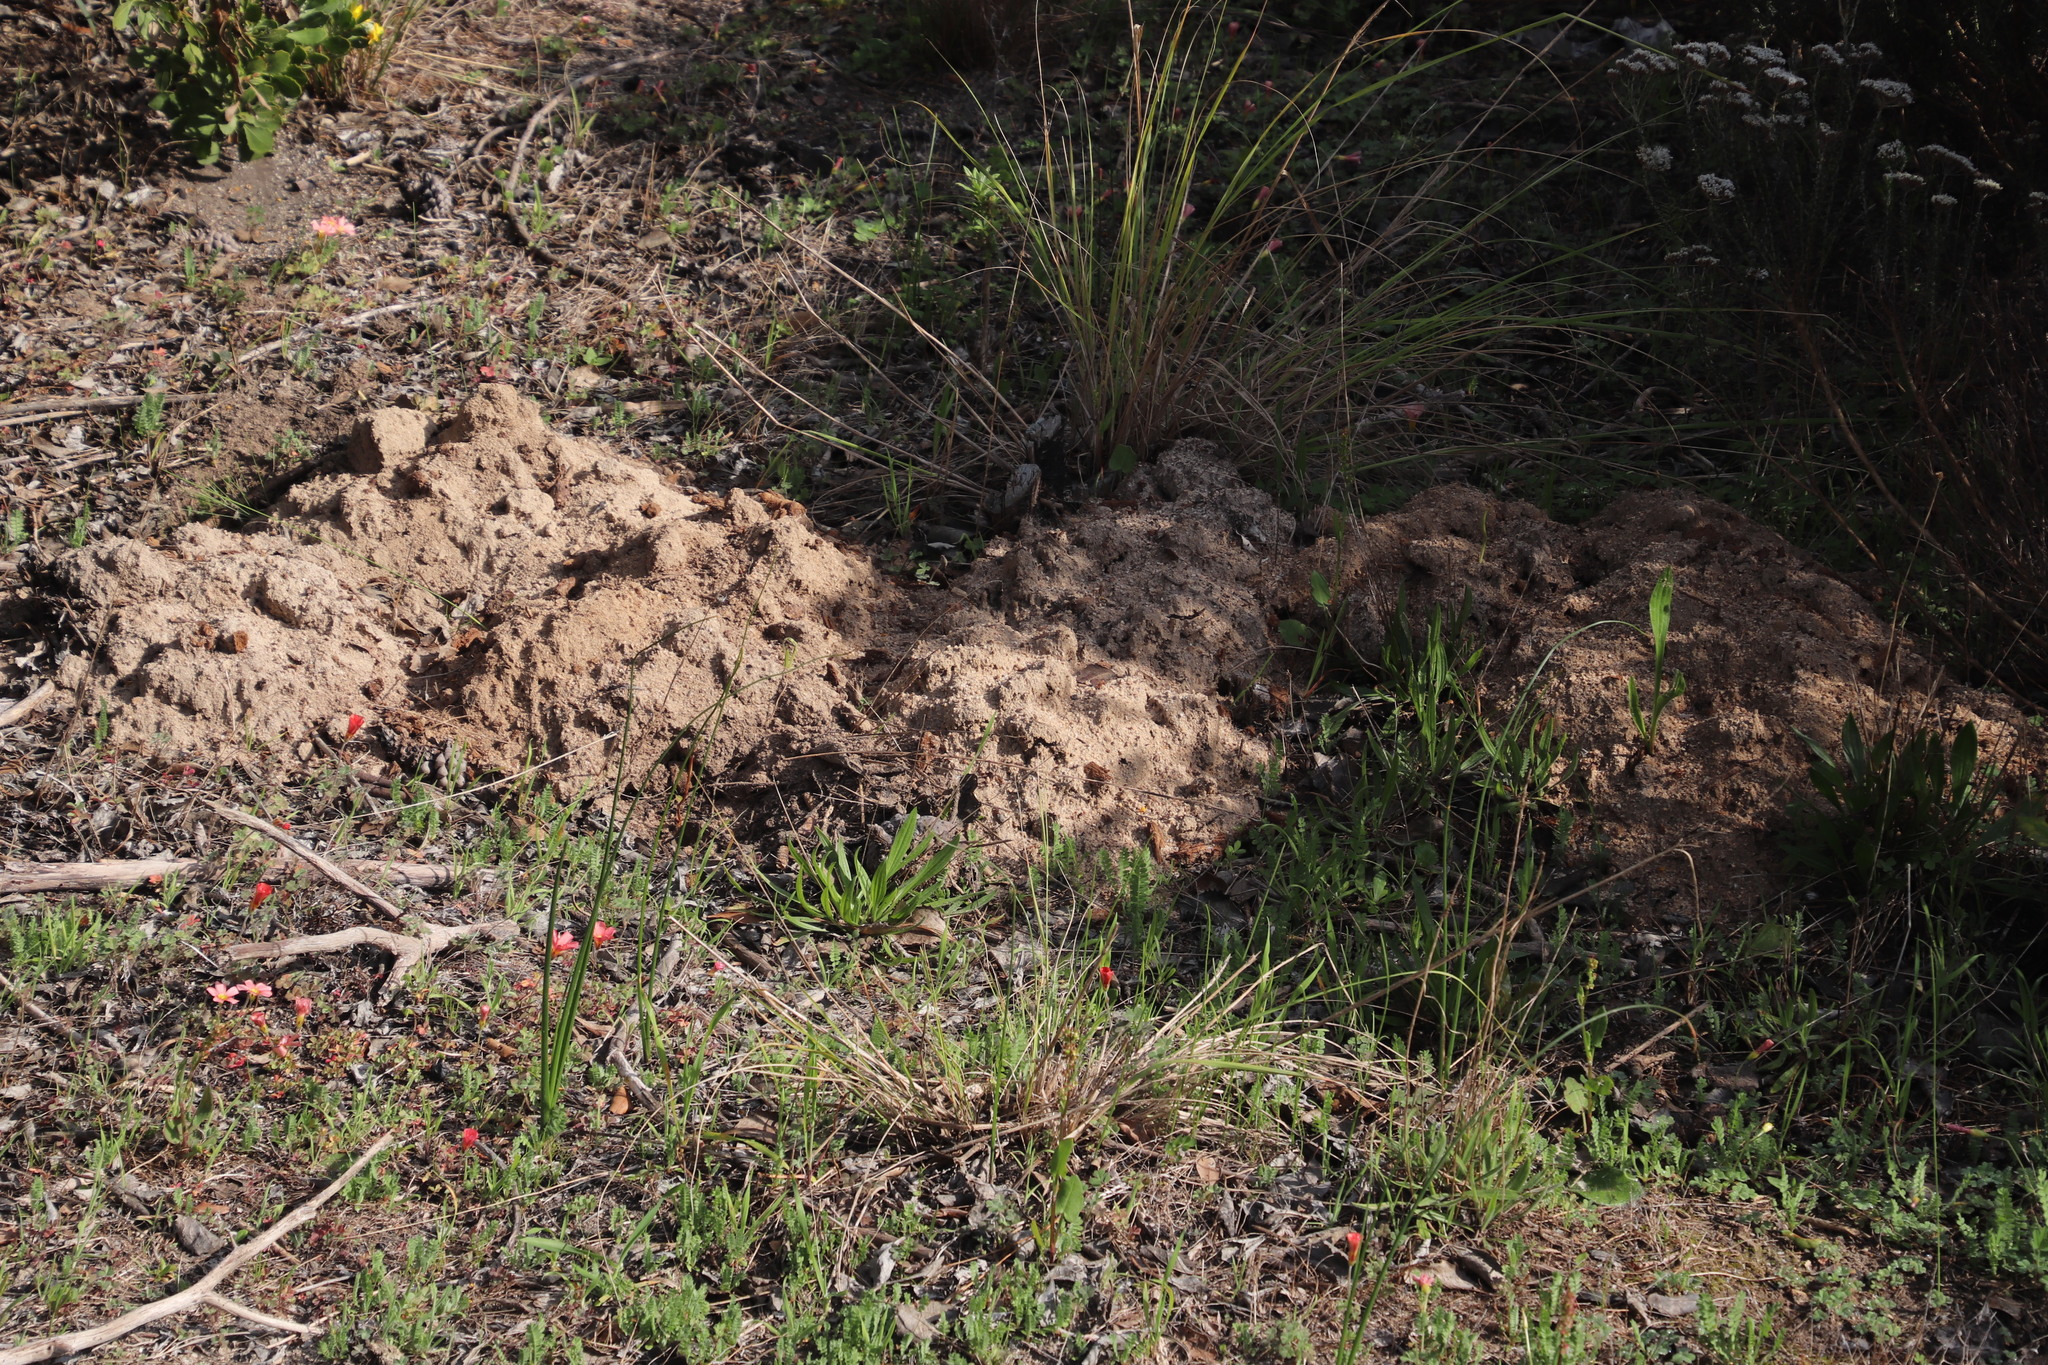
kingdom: Animalia
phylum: Chordata
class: Mammalia
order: Rodentia
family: Bathyergidae
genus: Bathyergus
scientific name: Bathyergus suillus
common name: Cape dune mole rat
